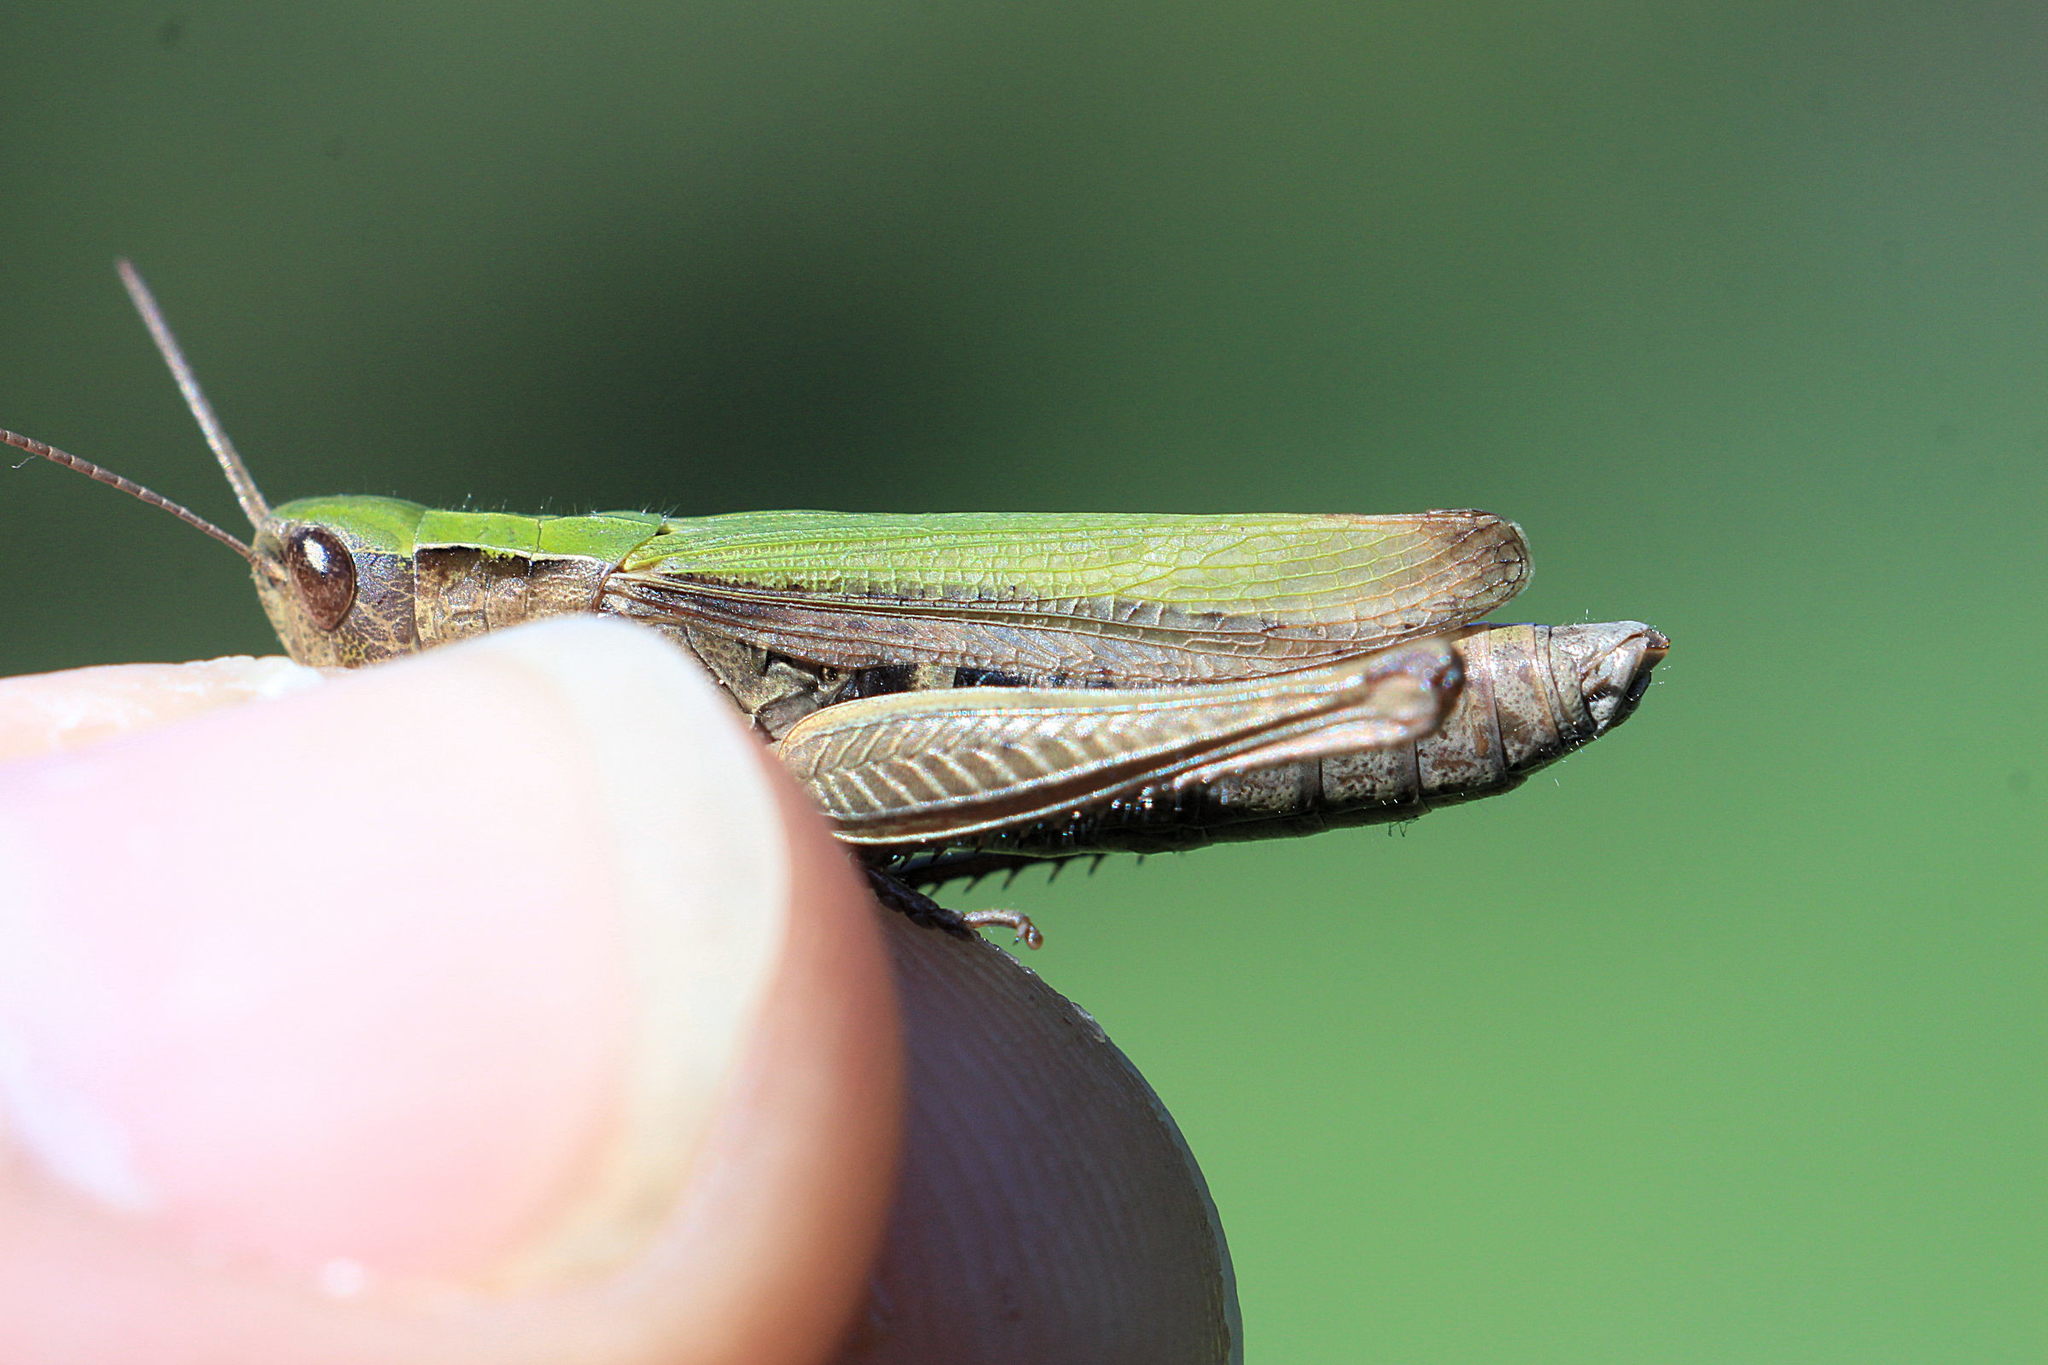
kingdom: Animalia
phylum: Arthropoda
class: Insecta
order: Orthoptera
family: Acrididae
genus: Chorthippus
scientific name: Chorthippus dorsatus
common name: Steppe grasshopper
